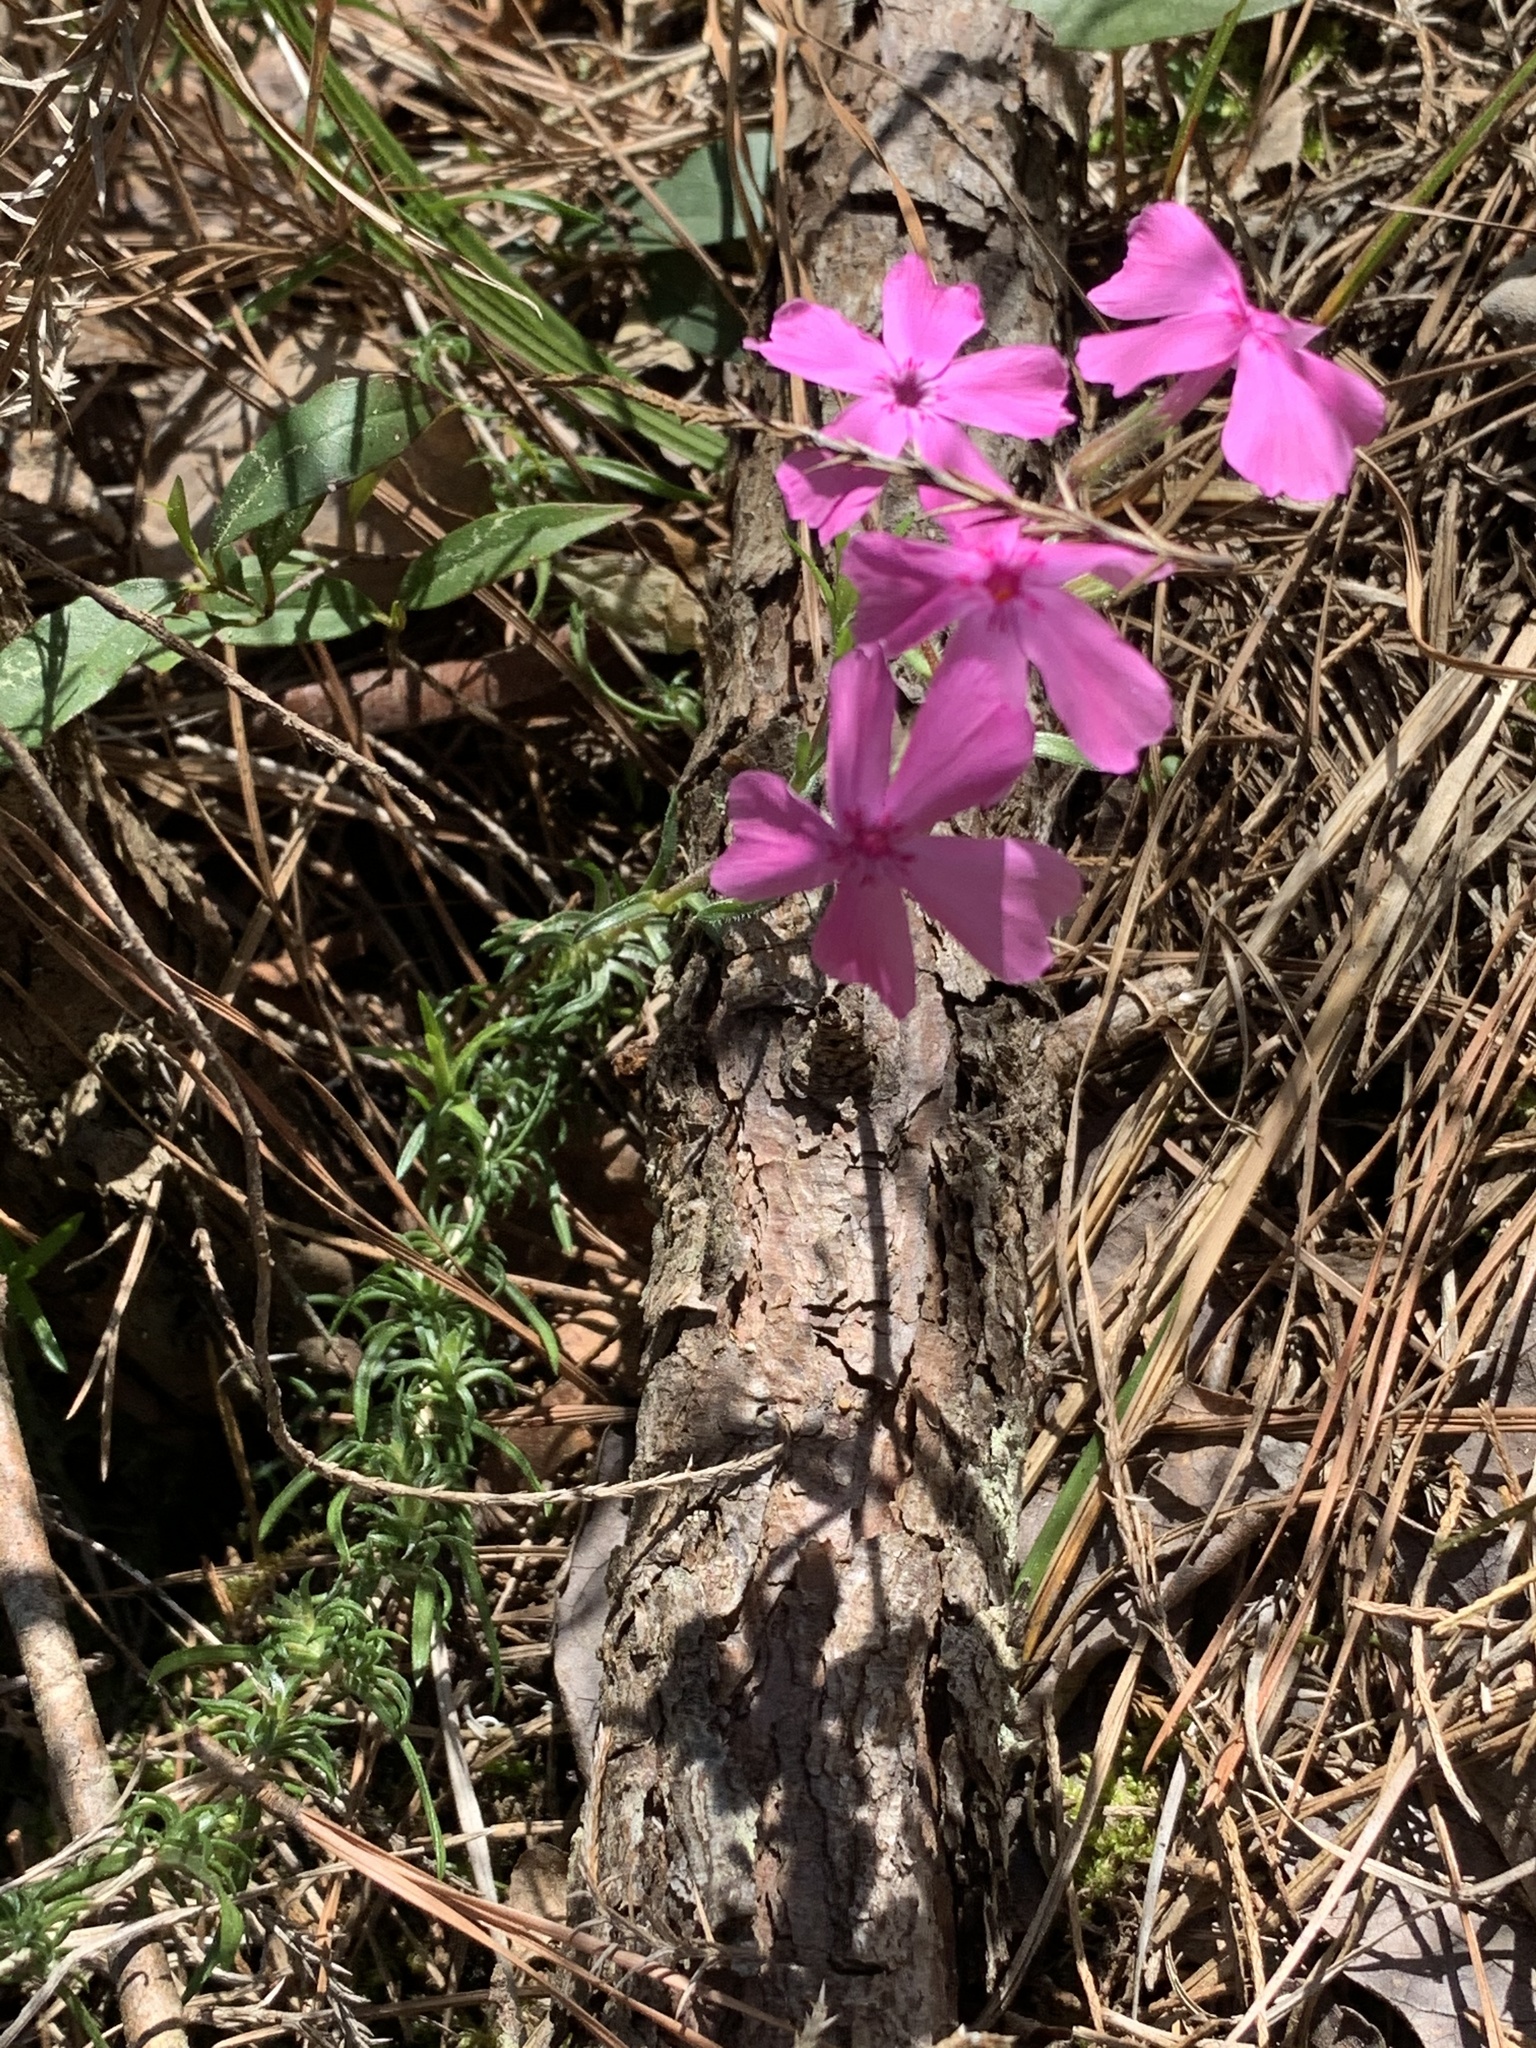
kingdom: Plantae
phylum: Tracheophyta
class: Magnoliopsida
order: Ericales
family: Polemoniaceae
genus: Phlox
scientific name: Phlox nivalis
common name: Trailing phlox
